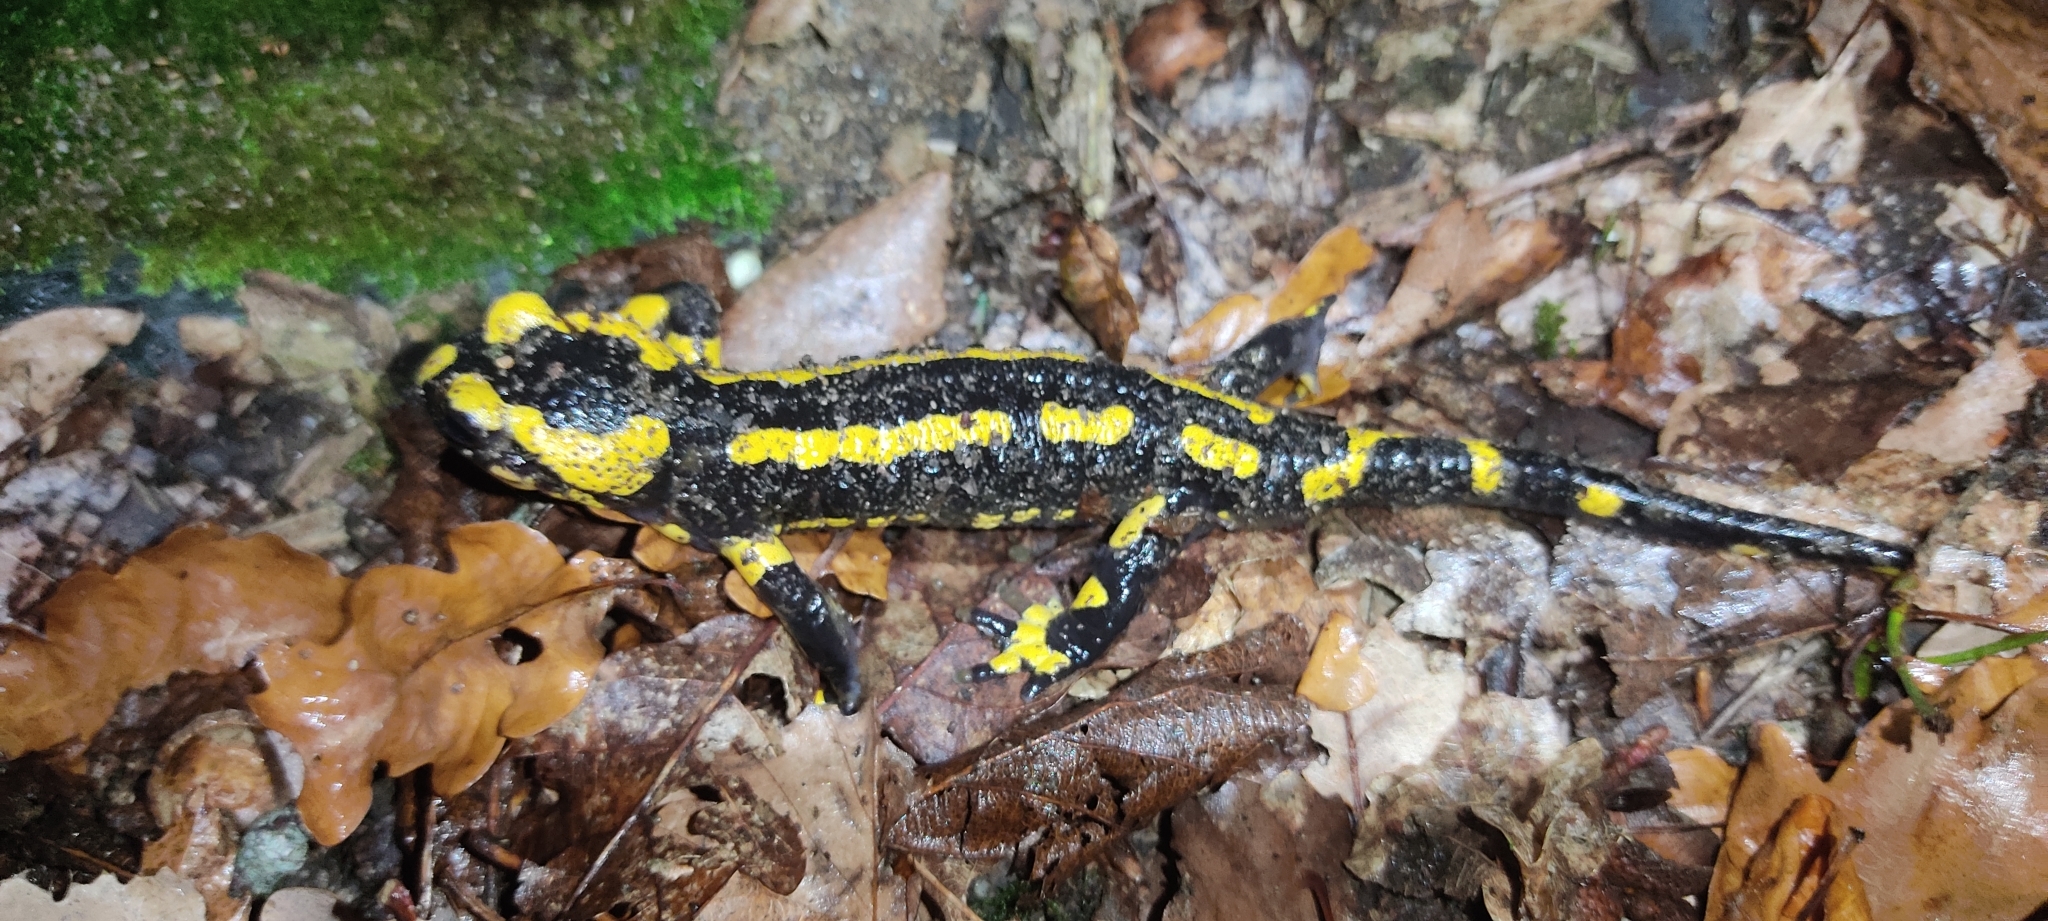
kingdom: Animalia
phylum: Chordata
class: Amphibia
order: Caudata
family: Salamandridae
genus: Salamandra
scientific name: Salamandra salamandra
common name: Fire salamander
